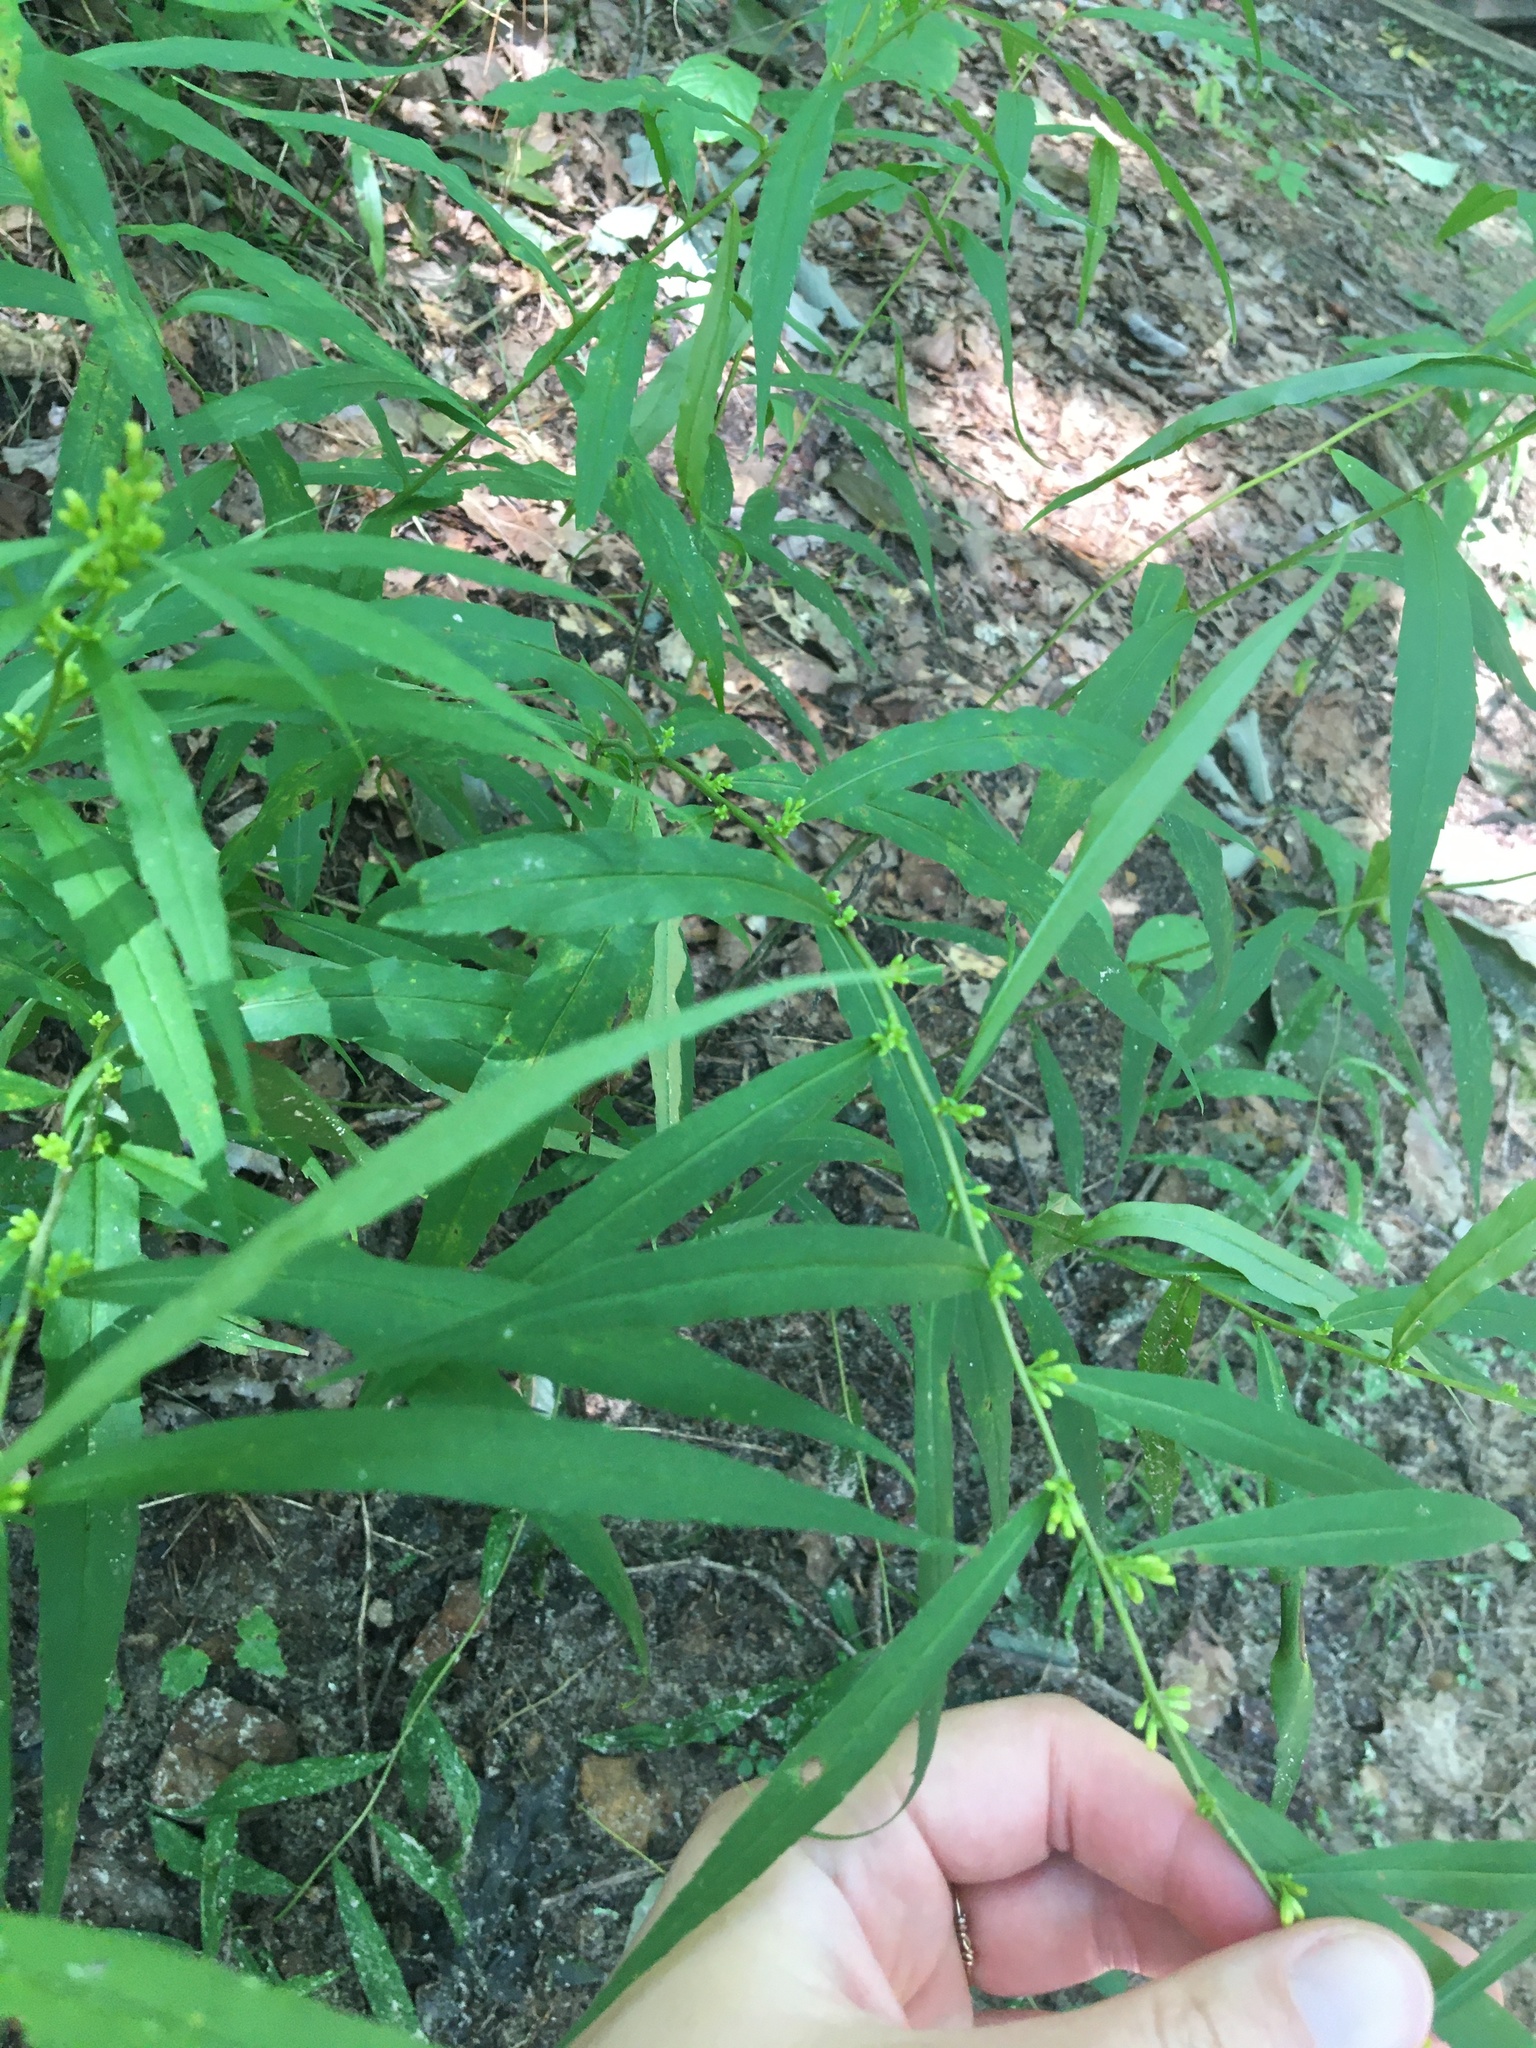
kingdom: Plantae
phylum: Tracheophyta
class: Magnoliopsida
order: Asterales
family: Asteraceae
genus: Solidago
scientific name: Solidago caesia
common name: Woodland goldenrod
